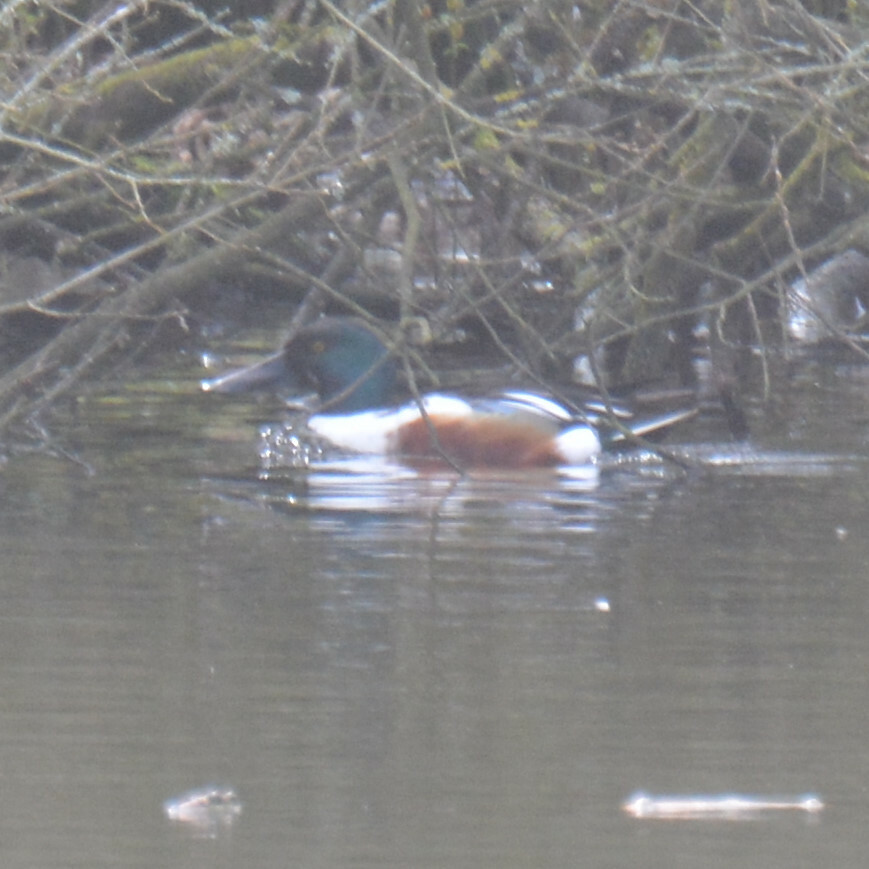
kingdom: Animalia
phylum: Chordata
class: Aves
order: Anseriformes
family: Anatidae
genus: Spatula
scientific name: Spatula clypeata
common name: Northern shoveler
